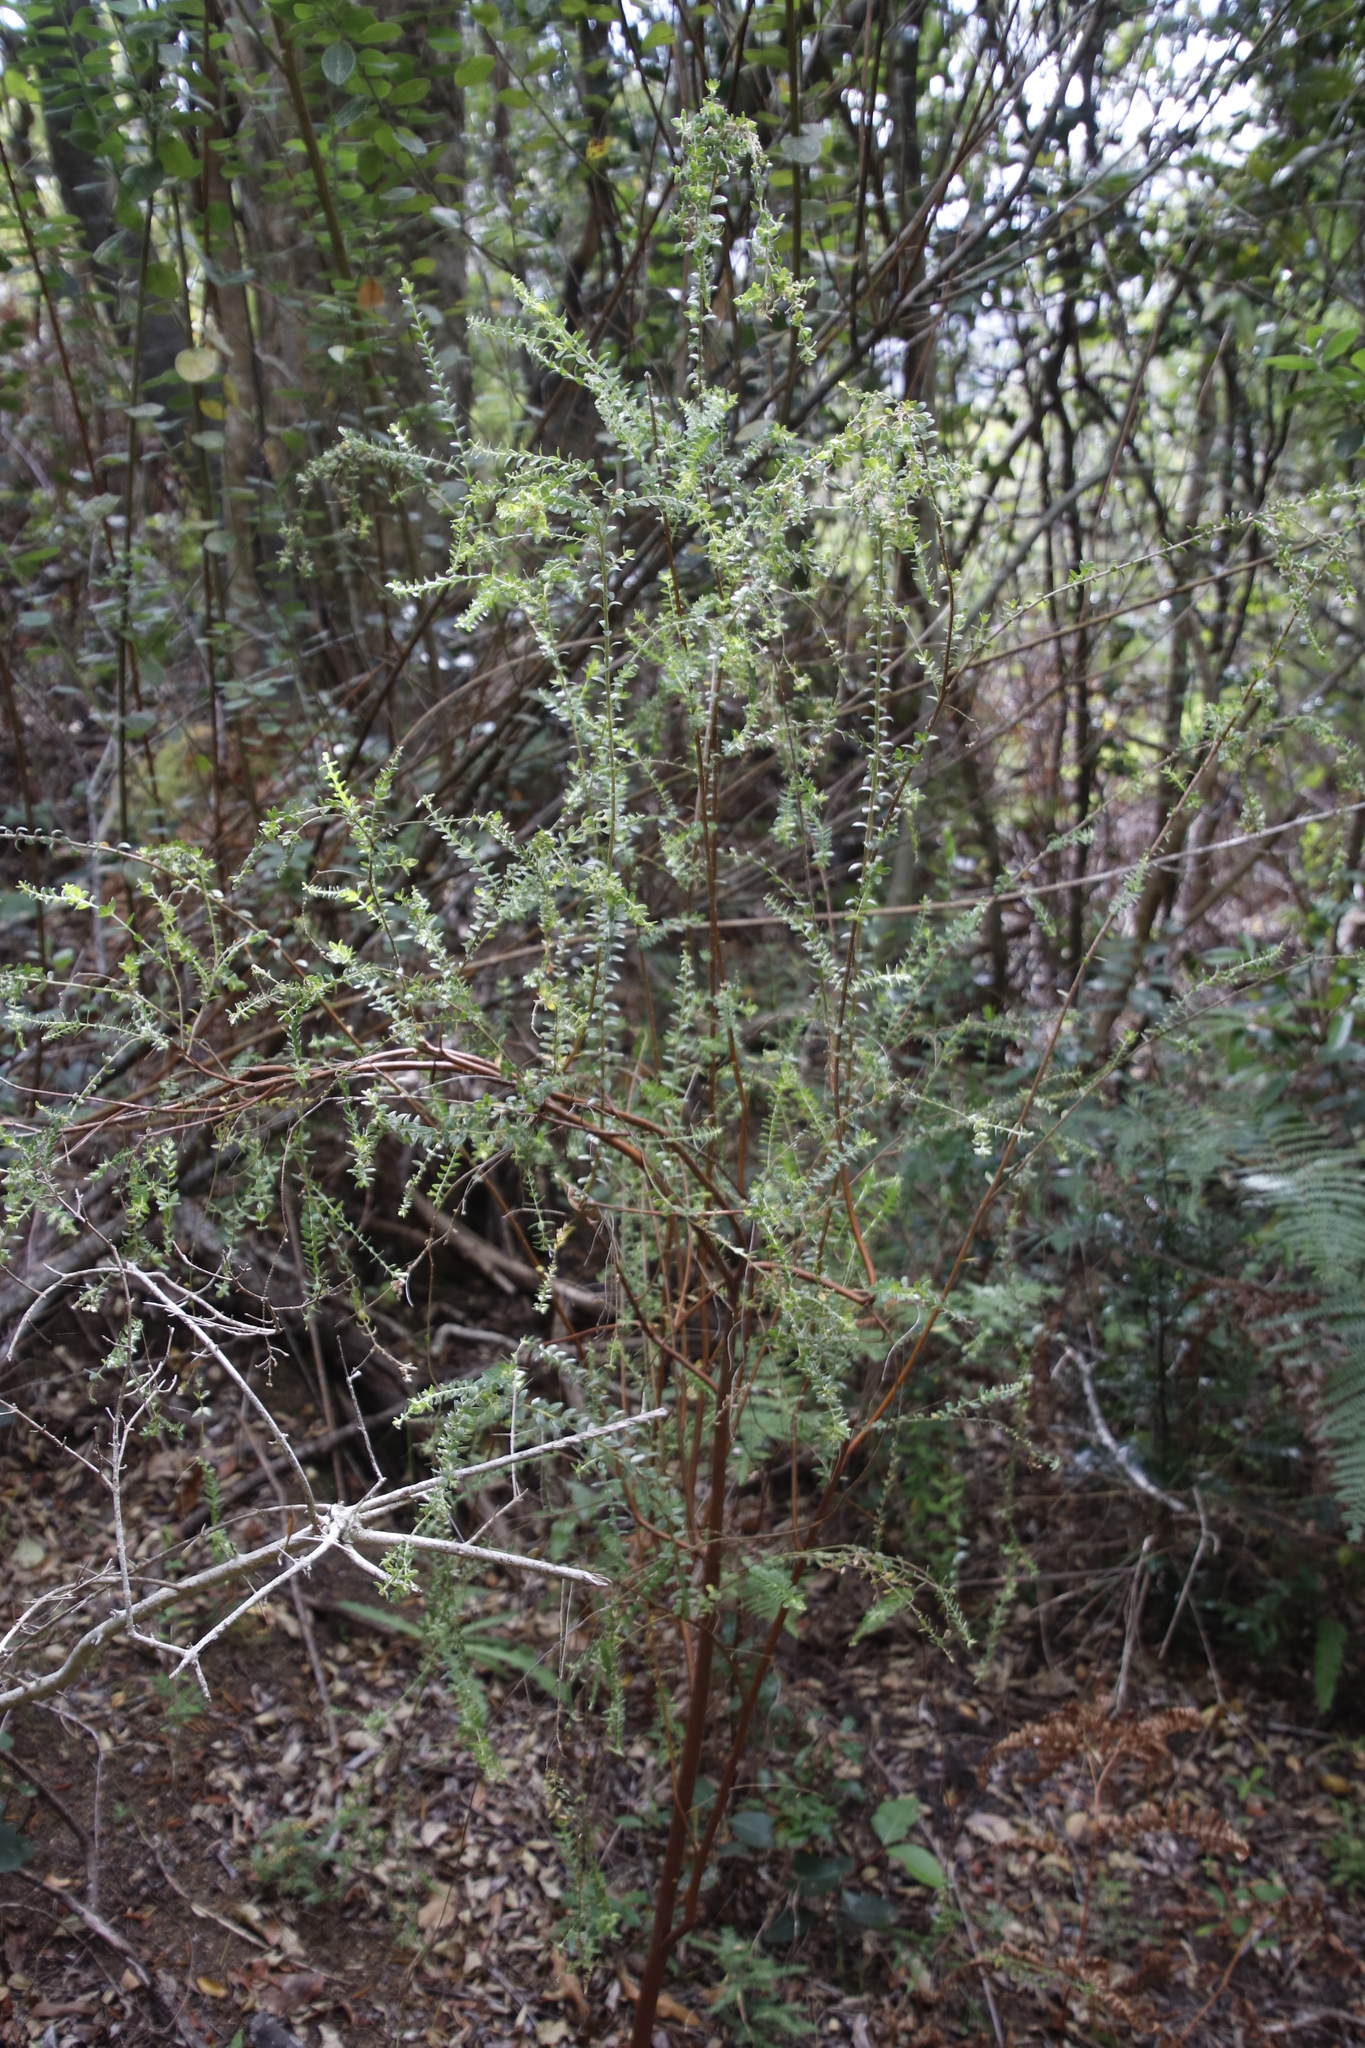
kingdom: Plantae
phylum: Tracheophyta
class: Magnoliopsida
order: Malvales
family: Thymelaeaceae
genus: Gnidia
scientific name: Gnidia sericea
